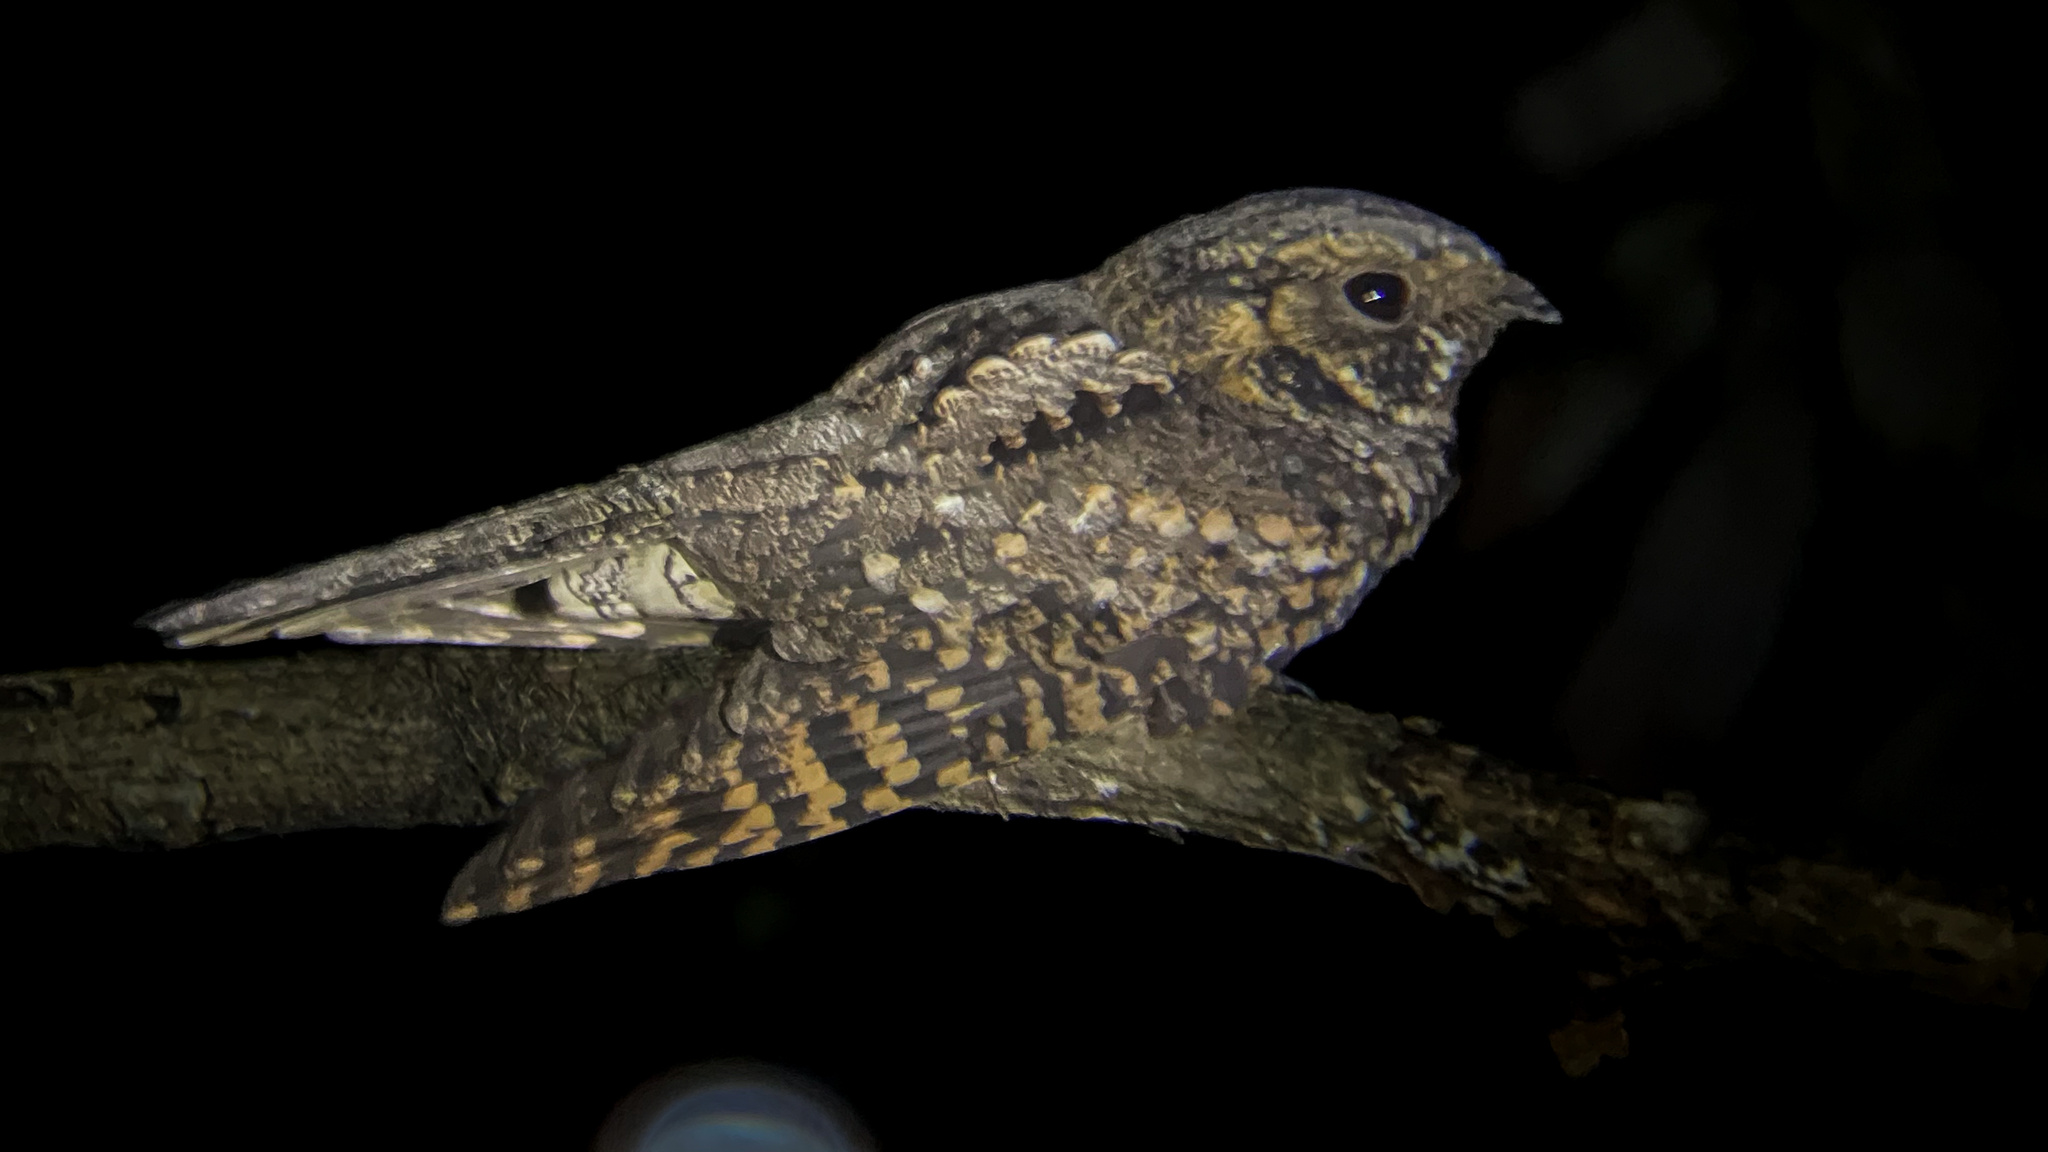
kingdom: Animalia
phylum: Chordata
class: Aves
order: Caprimulgiformes
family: Caprimulgidae
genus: Antrostomus
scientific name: Antrostomus arizonae
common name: Mexican whip-poor-will
